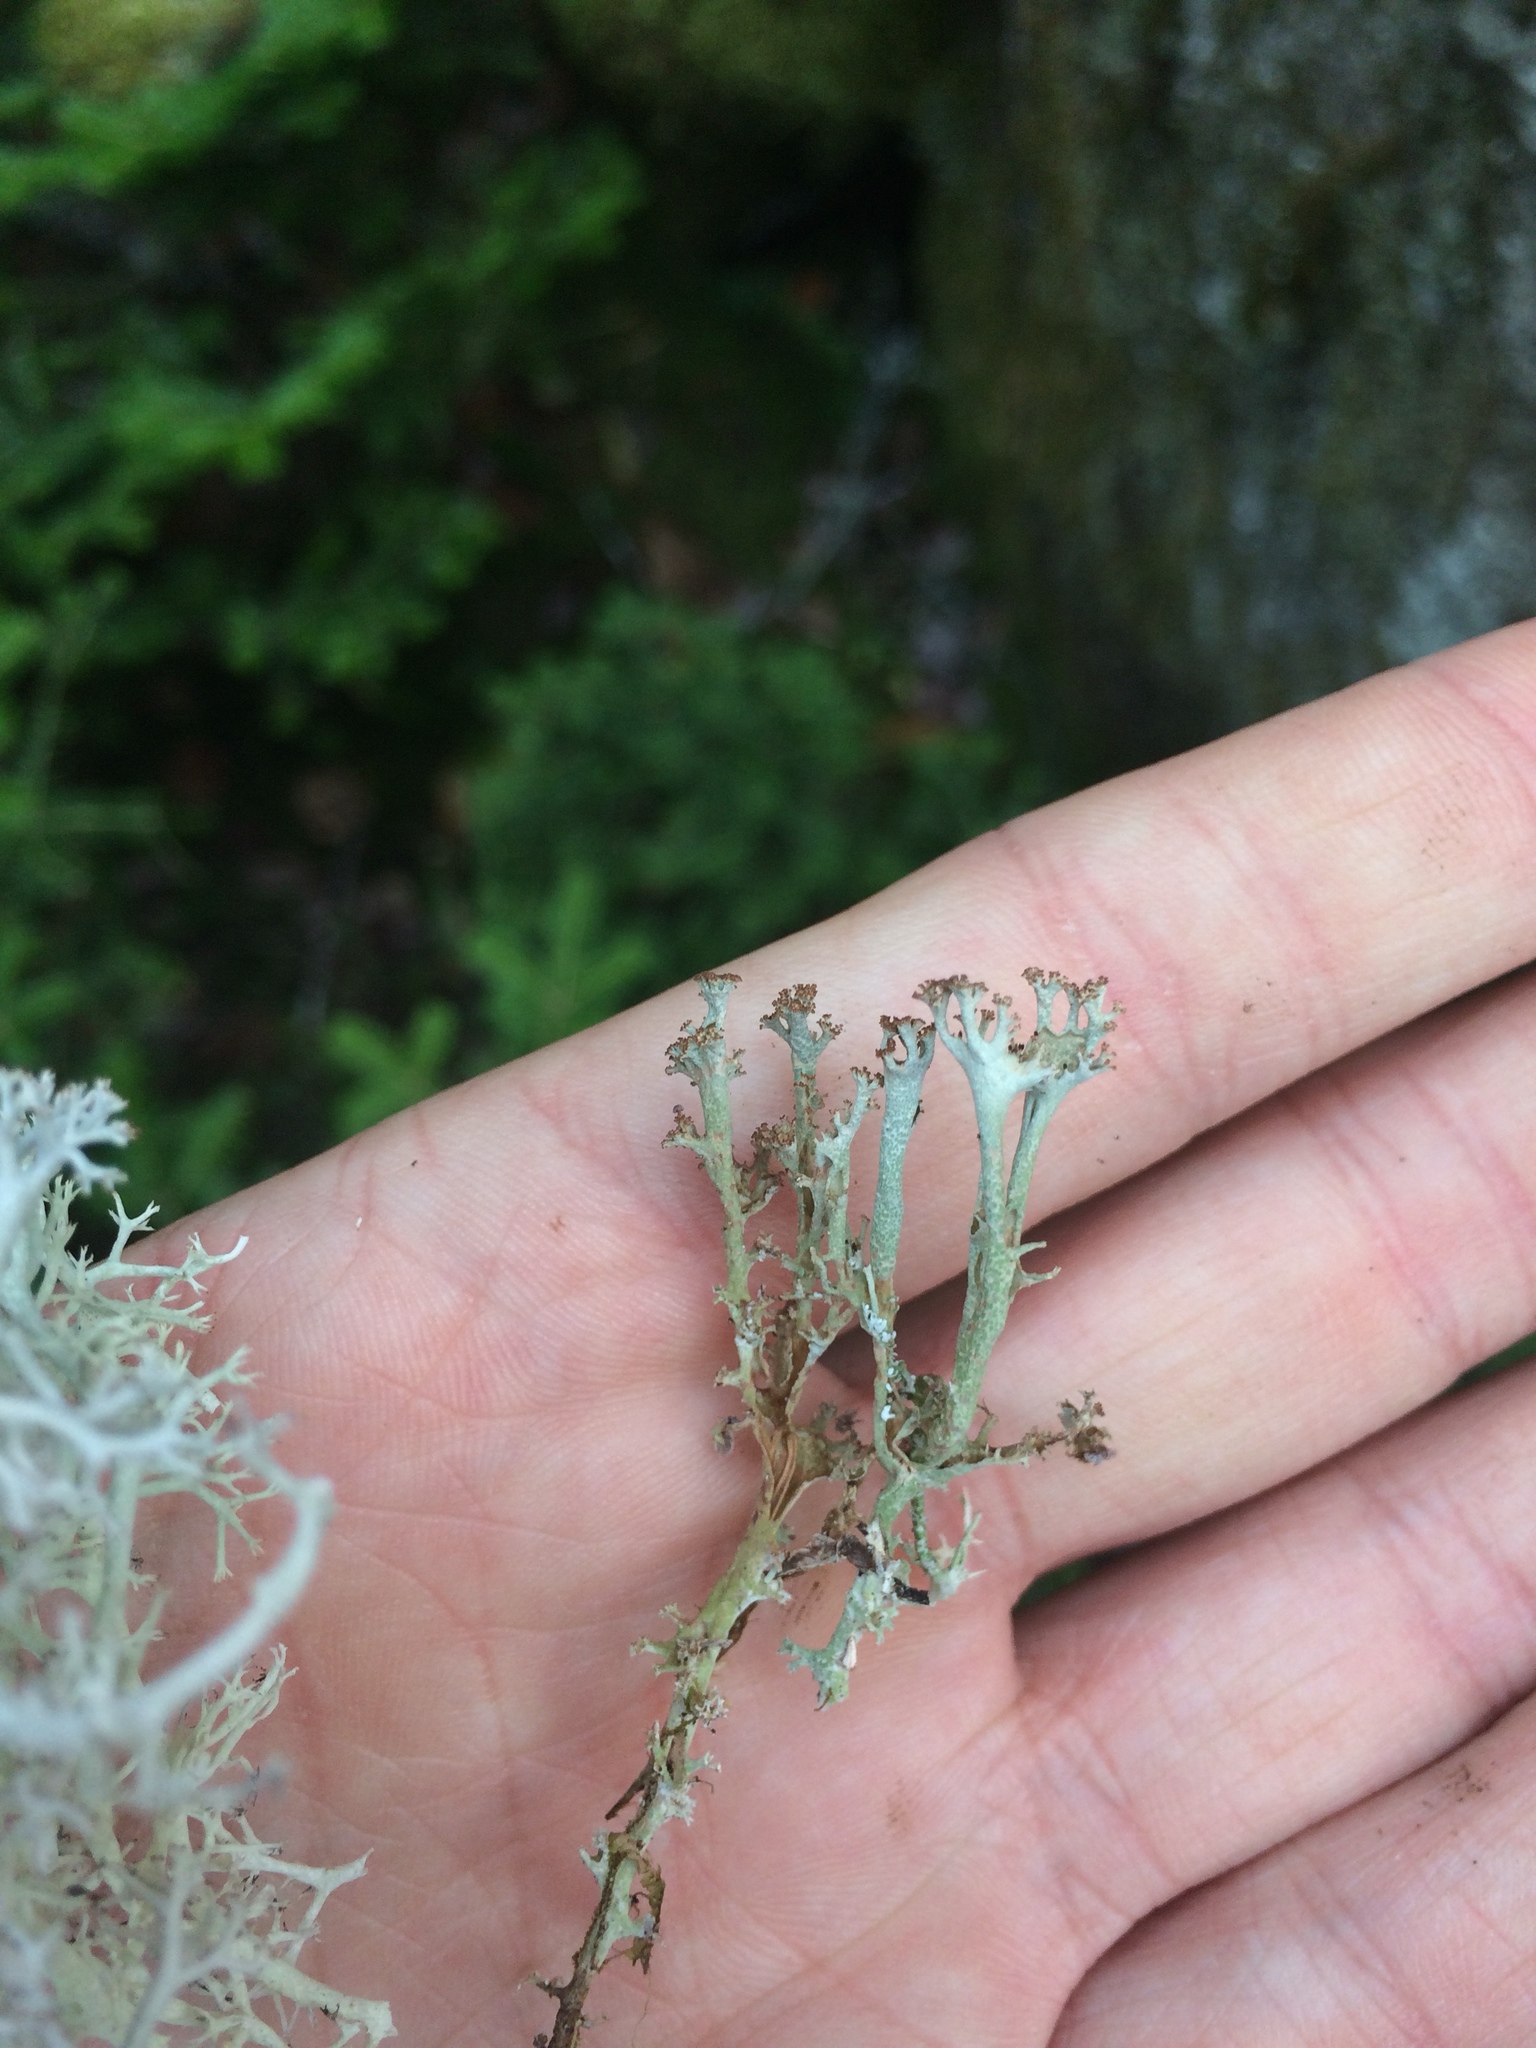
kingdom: Fungi
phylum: Ascomycota
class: Lecanoromycetes
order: Lecanorales
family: Cladoniaceae
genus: Cladonia
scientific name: Cladonia multiformis
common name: Sieve lichen
